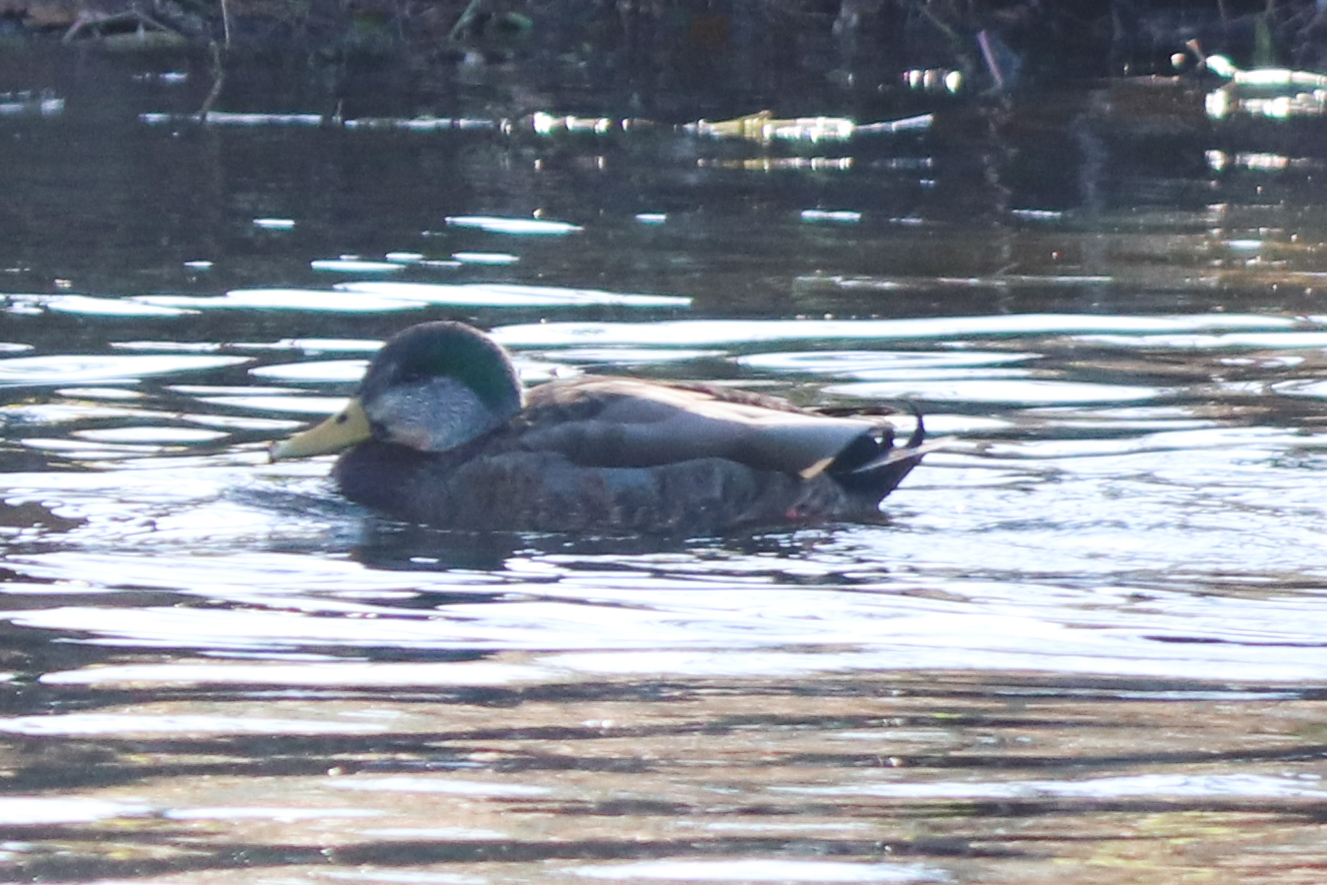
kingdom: Animalia
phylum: Chordata
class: Aves
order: Anseriformes
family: Anatidae
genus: Anas
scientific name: Anas
